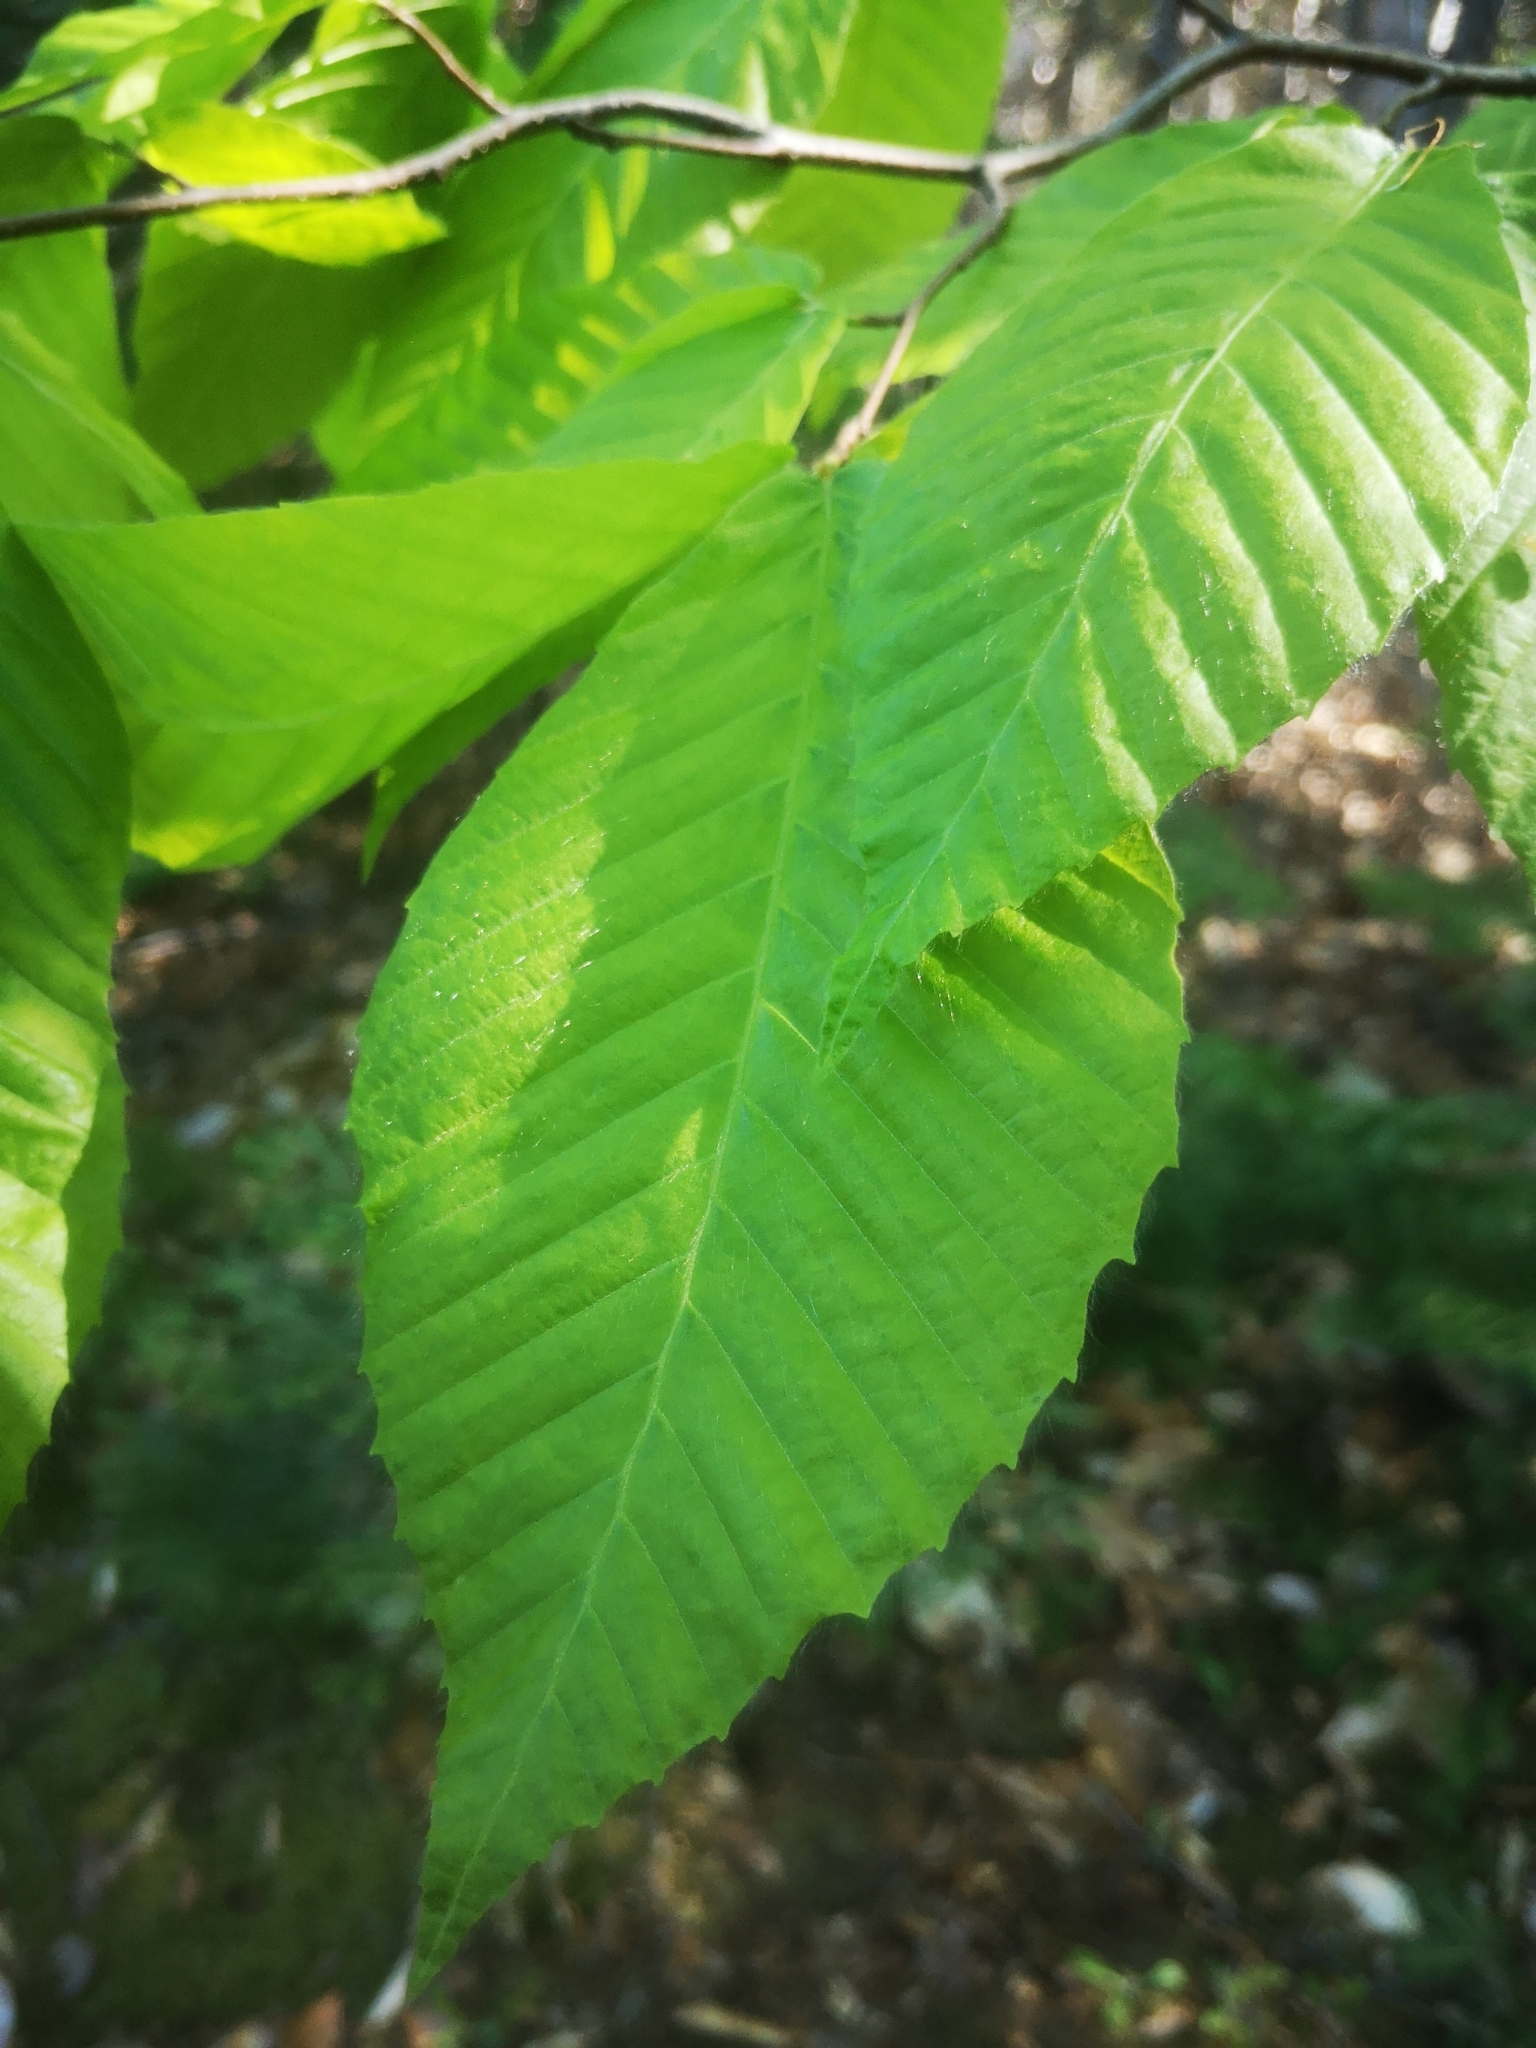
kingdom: Plantae
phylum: Tracheophyta
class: Magnoliopsida
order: Fagales
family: Fagaceae
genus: Fagus
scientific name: Fagus grandifolia
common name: American beech
